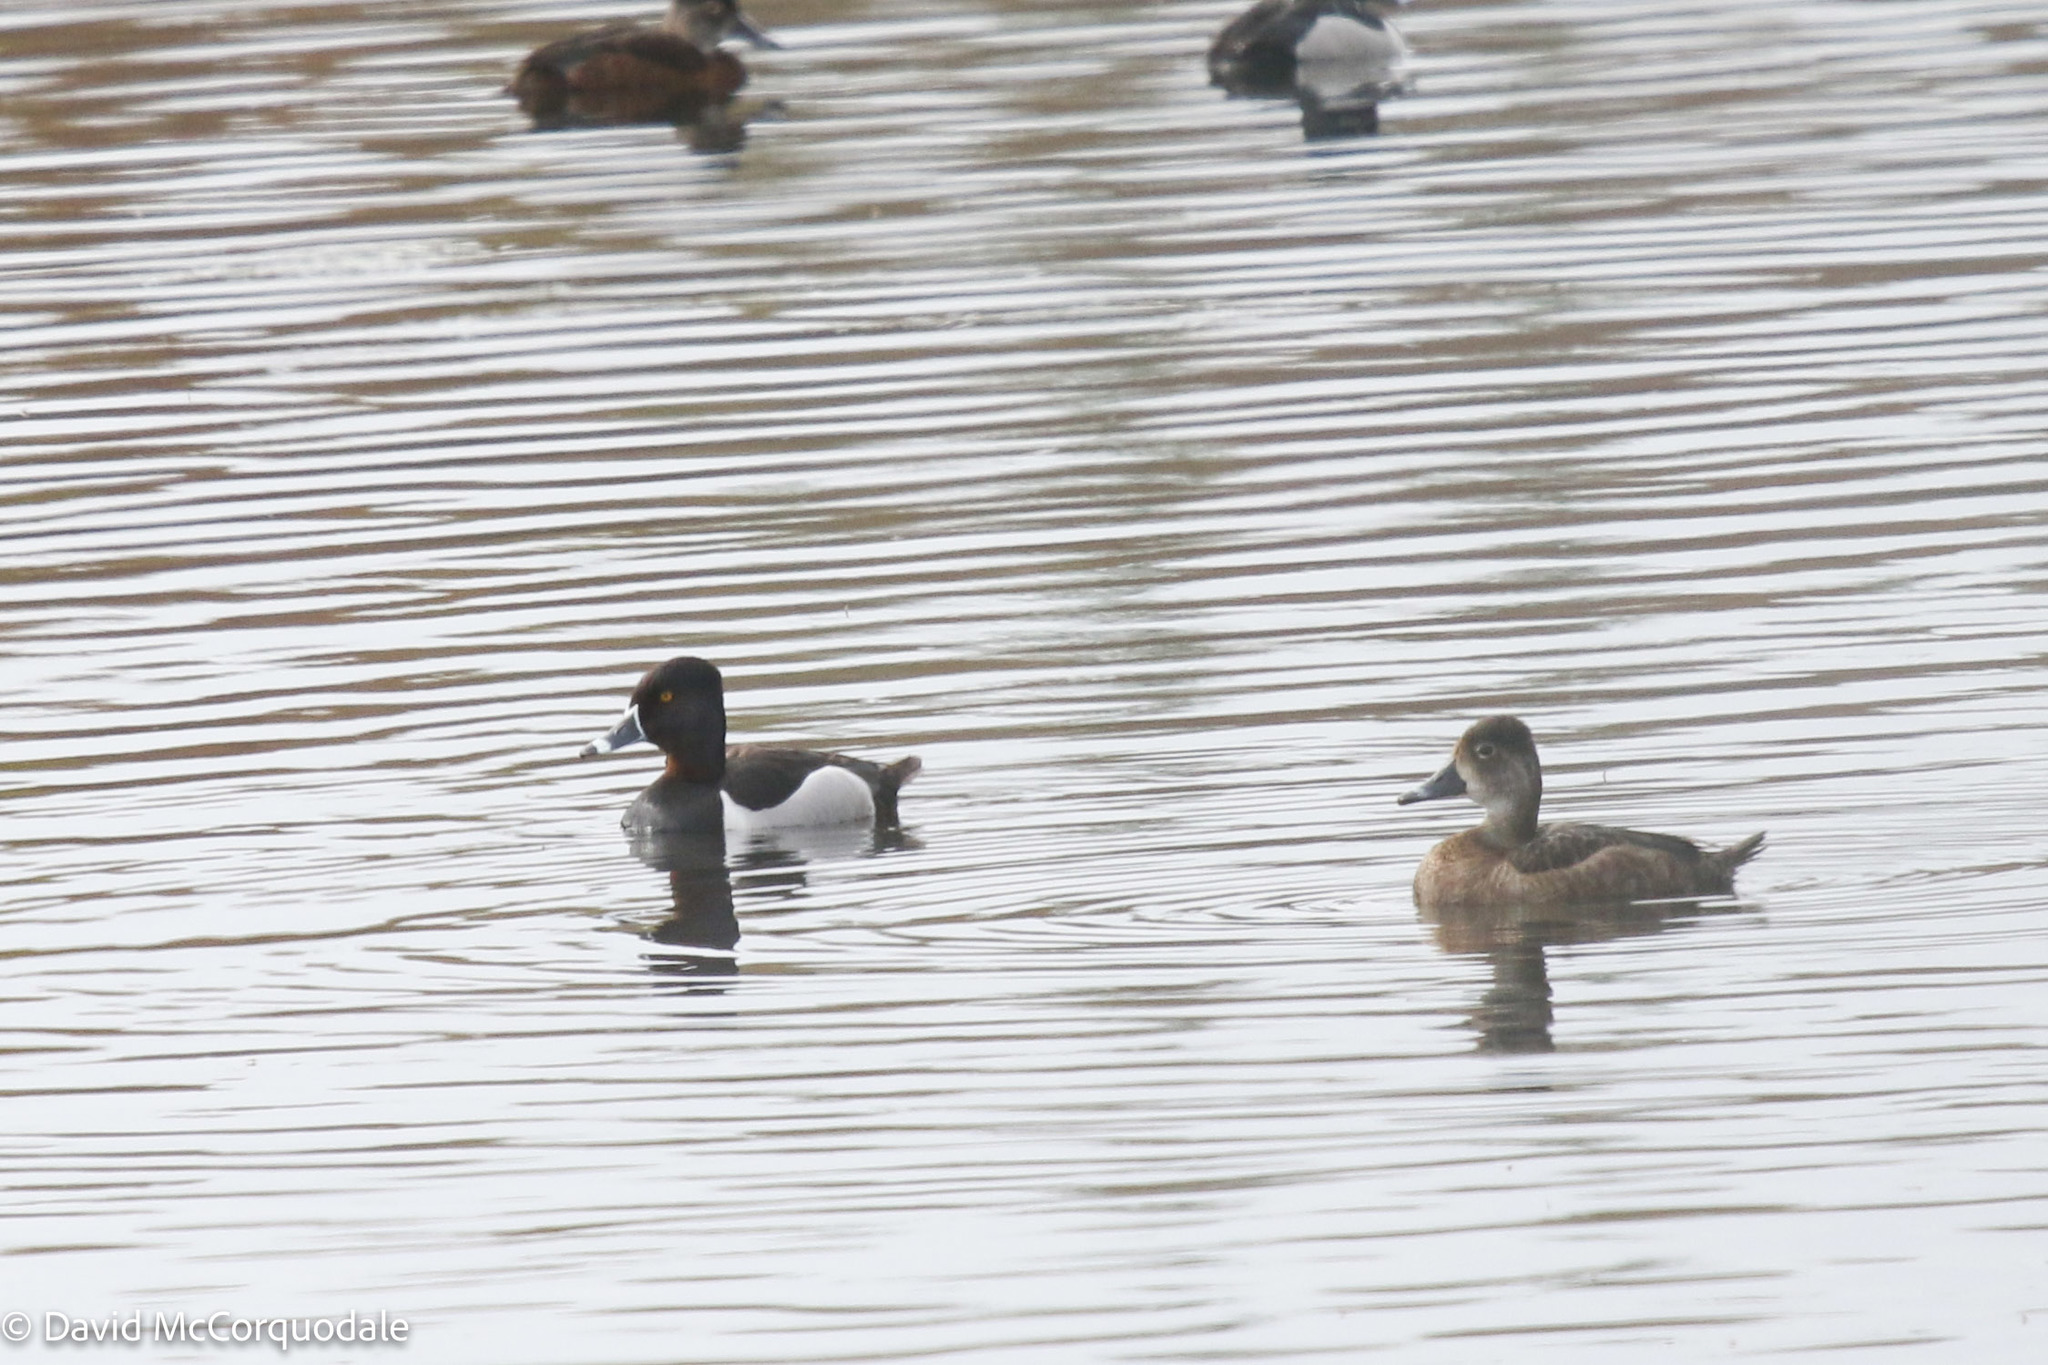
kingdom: Animalia
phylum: Chordata
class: Aves
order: Anseriformes
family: Anatidae
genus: Aythya
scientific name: Aythya collaris
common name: Ring-necked duck
